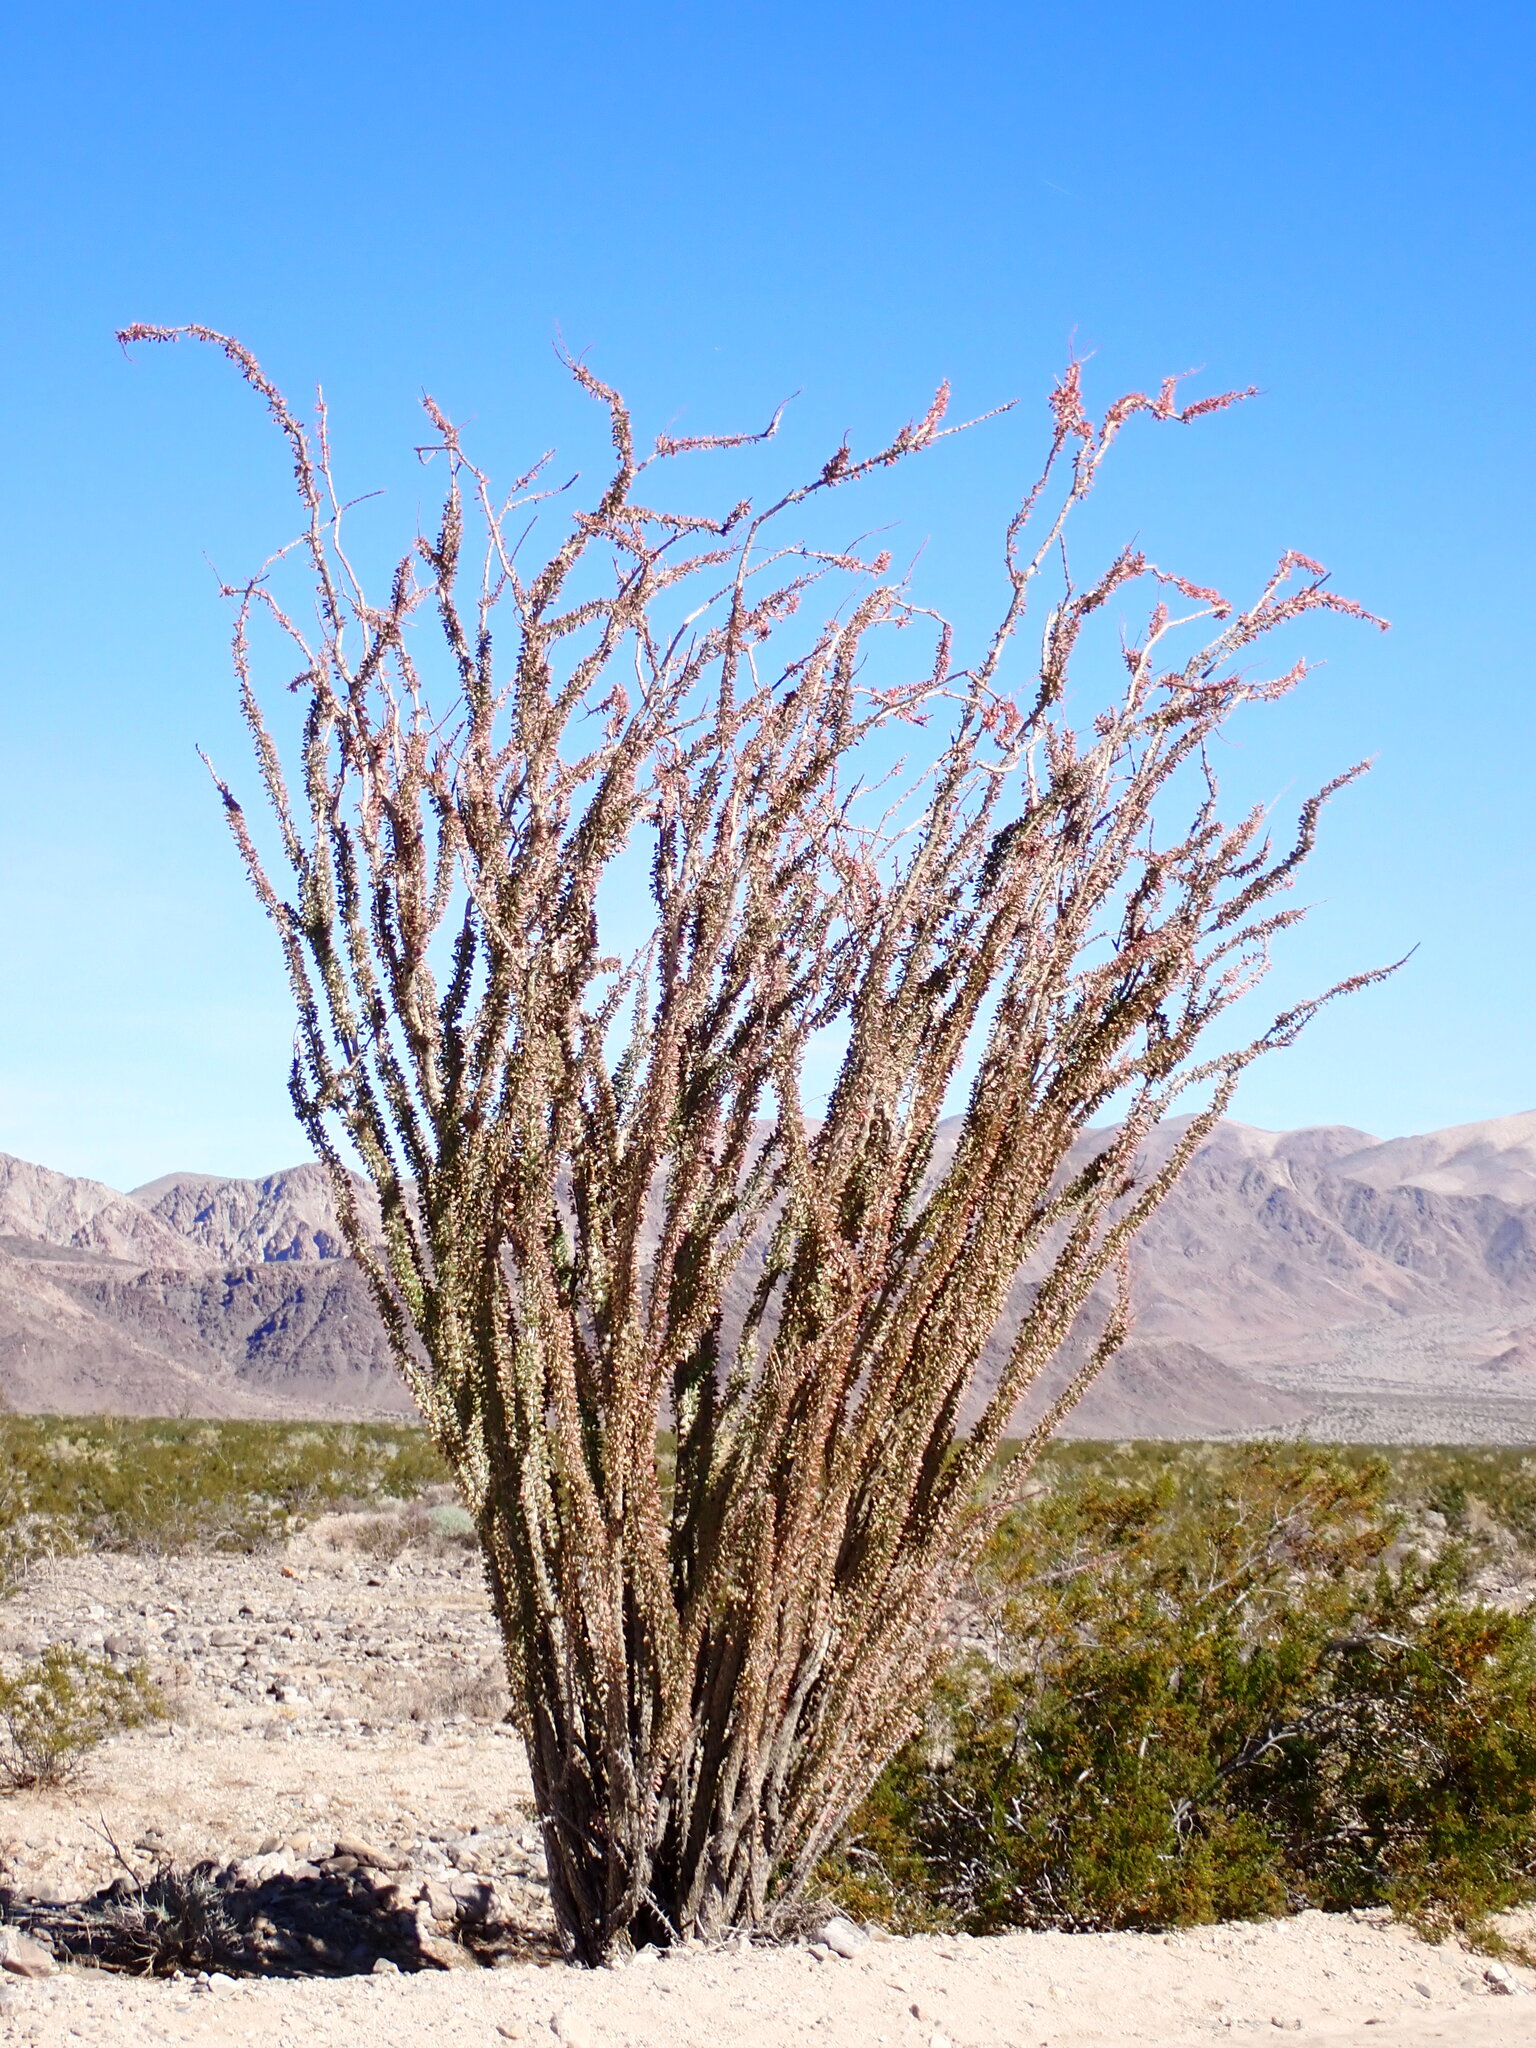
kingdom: Plantae
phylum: Tracheophyta
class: Magnoliopsida
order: Ericales
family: Fouquieriaceae
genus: Fouquieria
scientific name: Fouquieria splendens
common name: Vine-cactus
